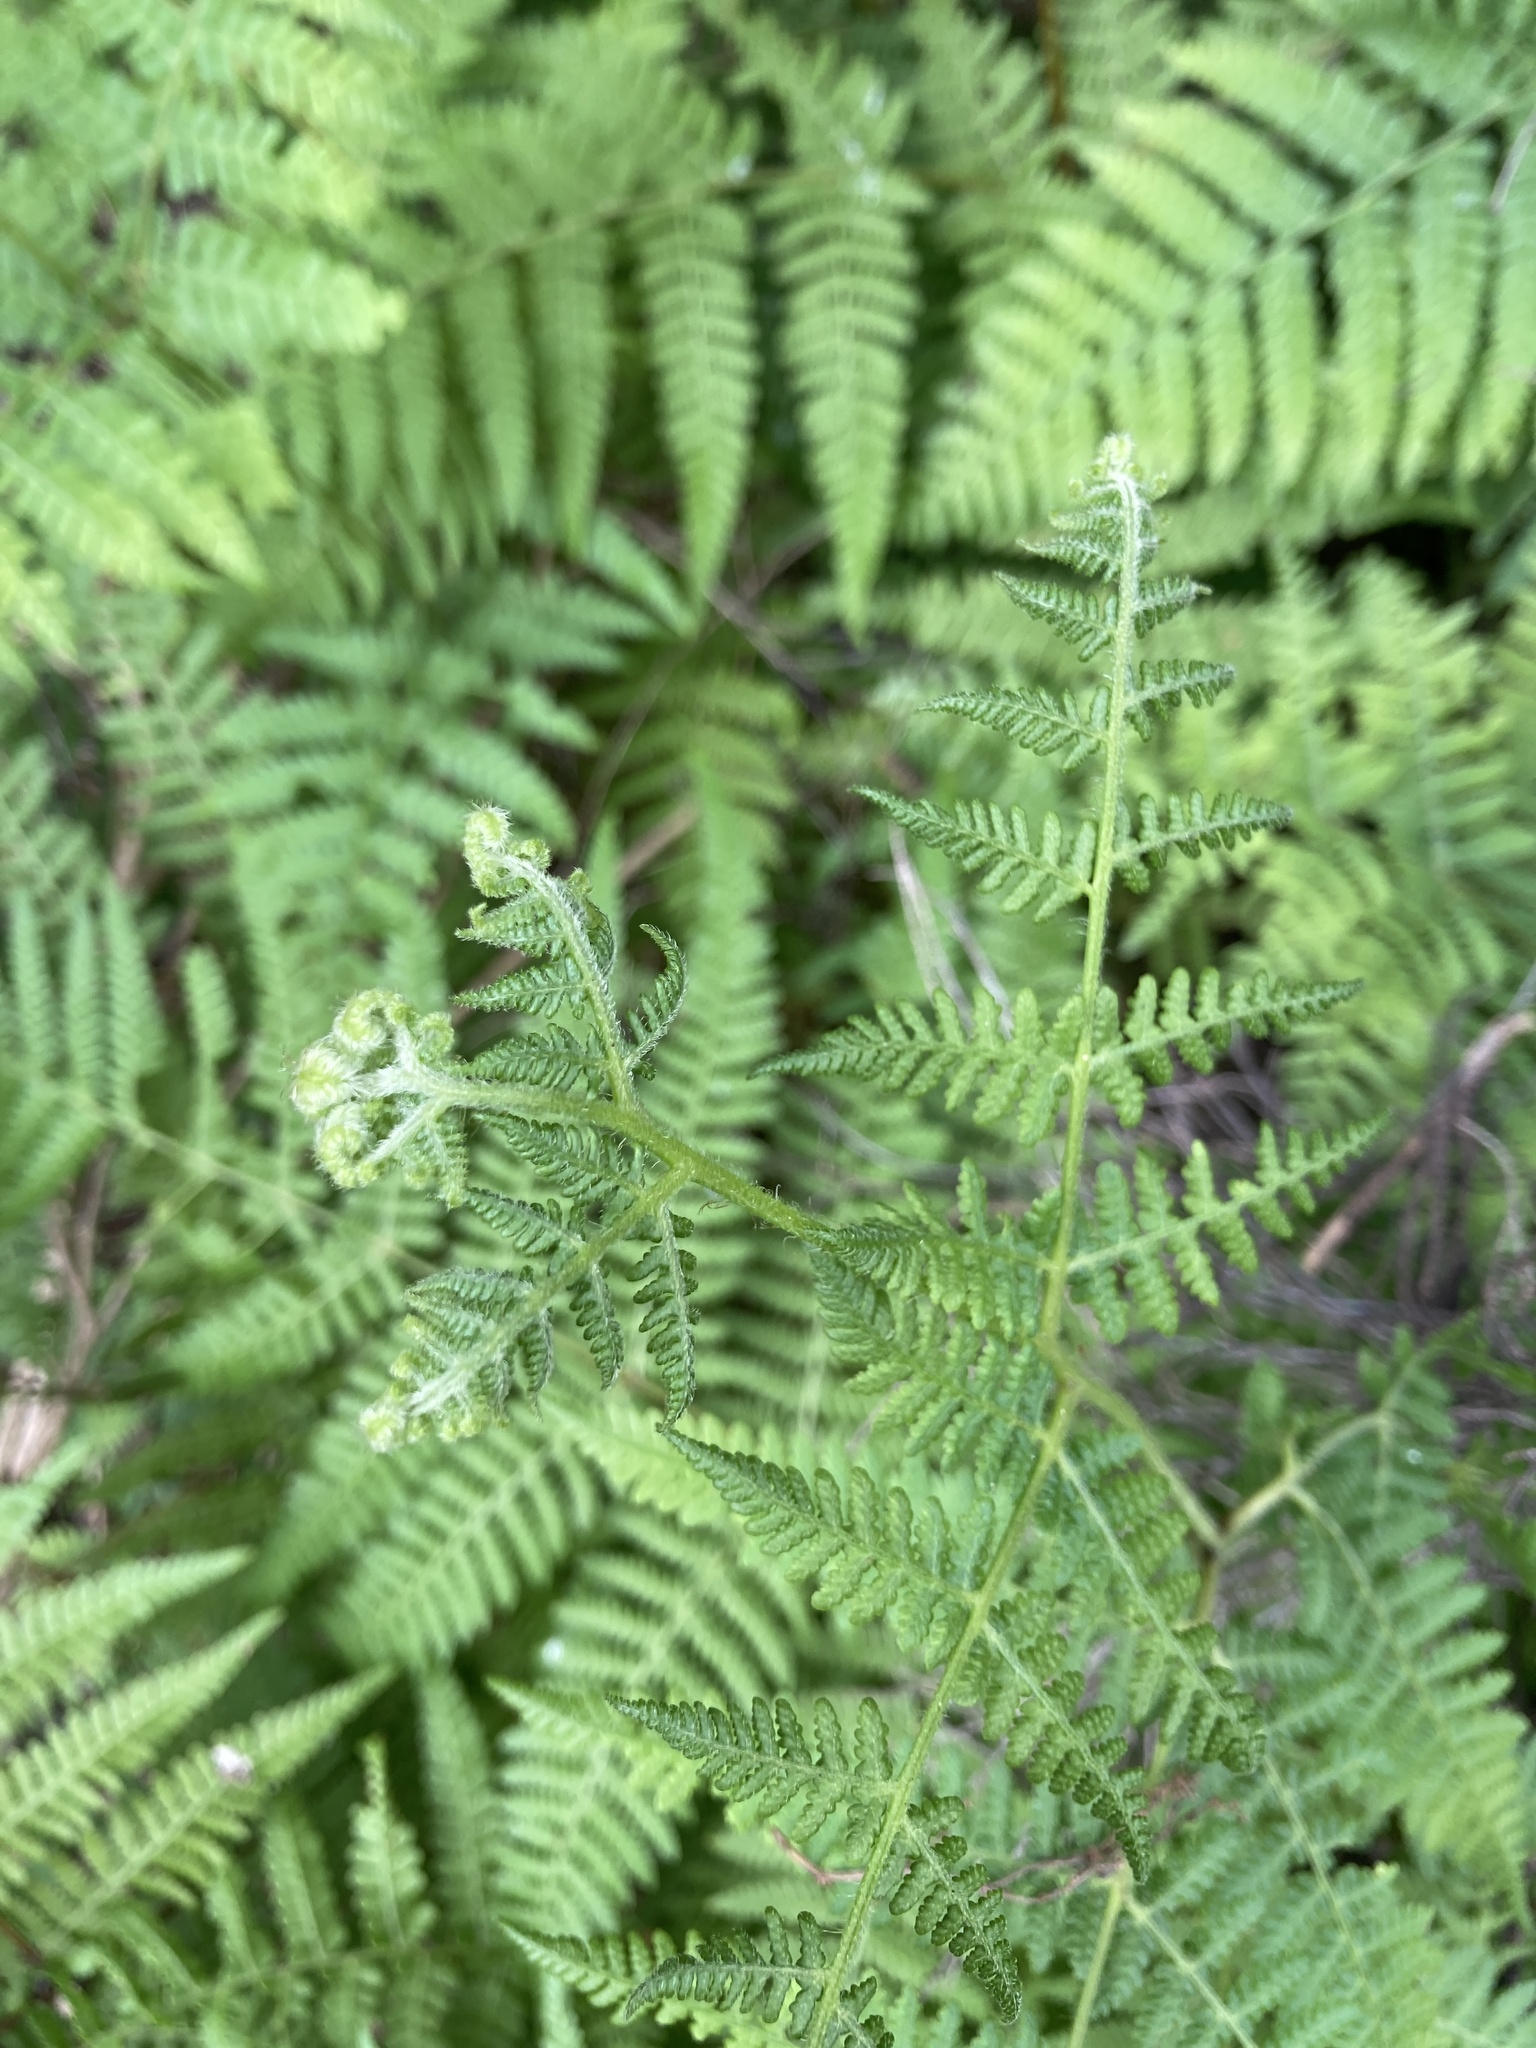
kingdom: Plantae
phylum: Tracheophyta
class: Polypodiopsida
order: Polypodiales
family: Dennstaedtiaceae
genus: Hypolepis
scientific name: Hypolepis ambigua
